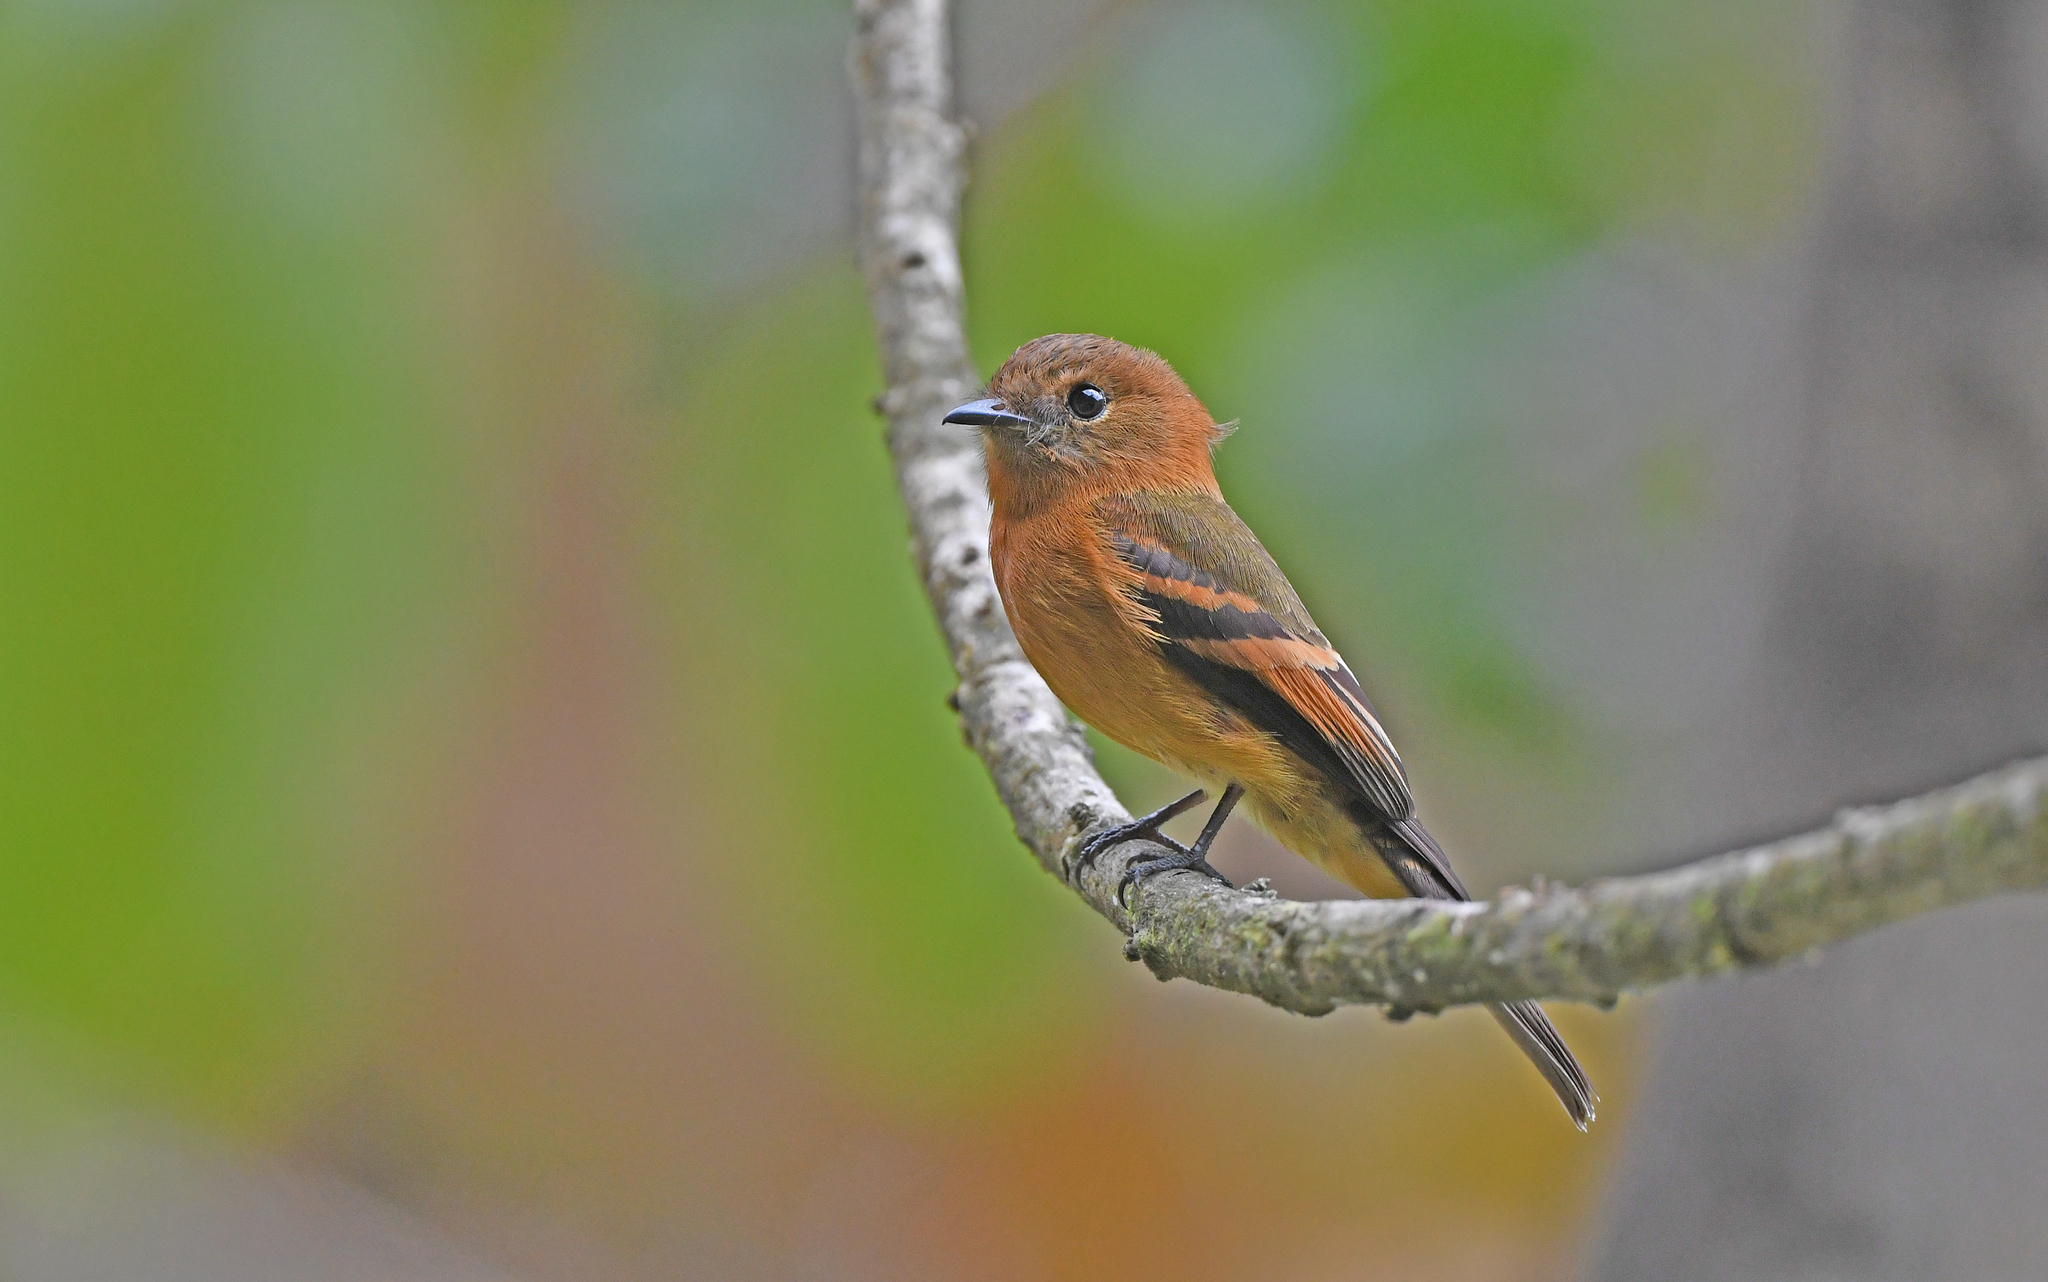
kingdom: Animalia
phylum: Chordata
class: Aves
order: Passeriformes
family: Tyrannidae
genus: Pyrrhomyias
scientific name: Pyrrhomyias cinnamomeus
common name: Cinnamon flycatcher
